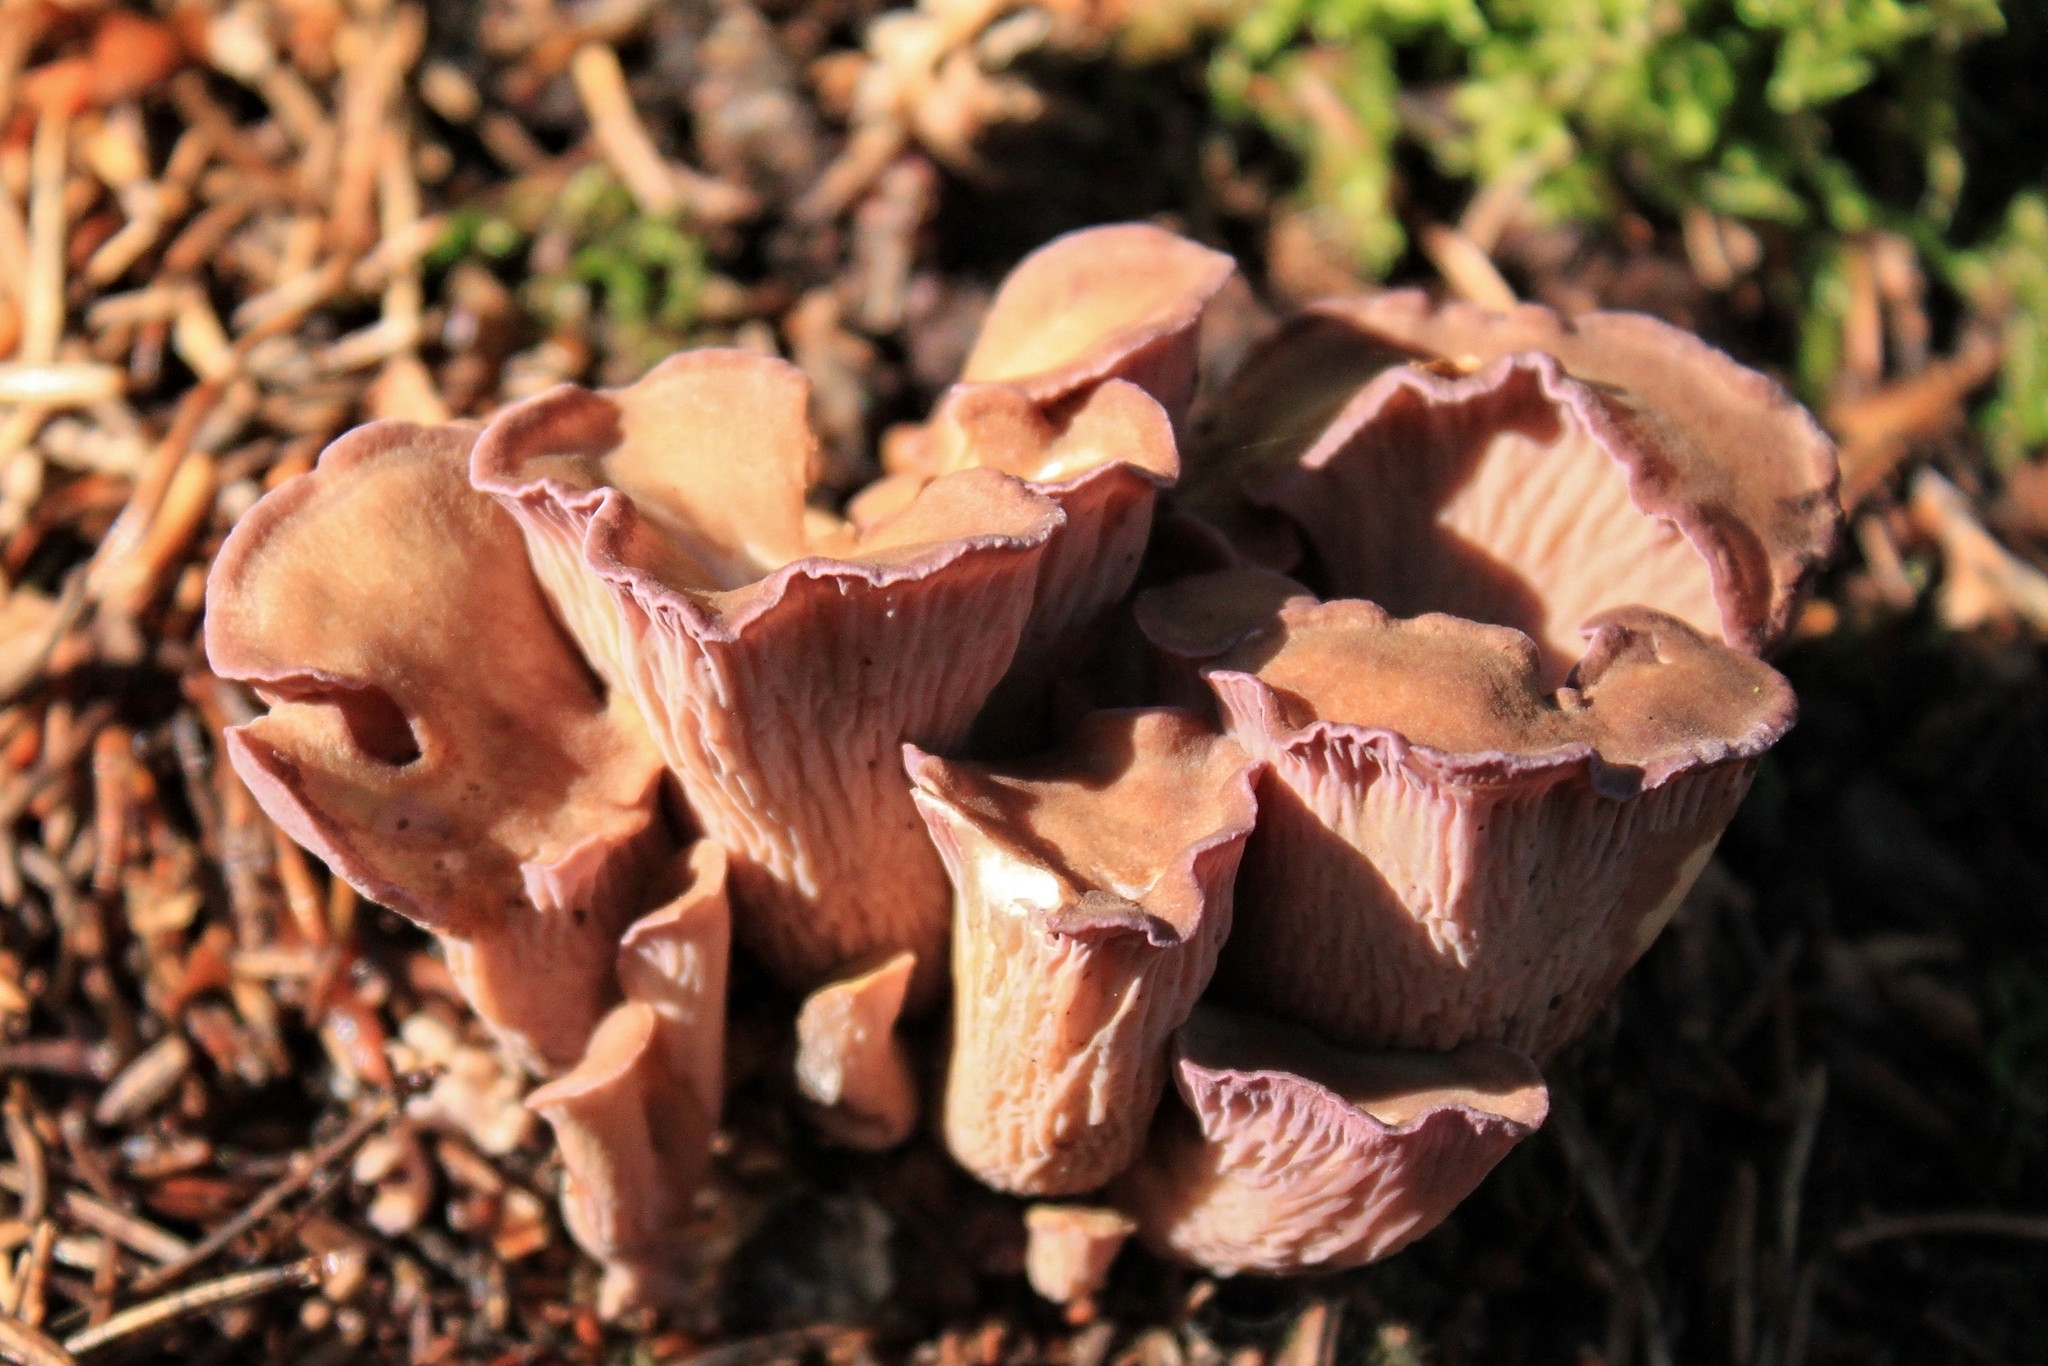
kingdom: Fungi
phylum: Basidiomycota
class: Agaricomycetes
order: Gomphales
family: Gomphaceae
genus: Gomphus
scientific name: Gomphus clavatus
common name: Pig's ear
